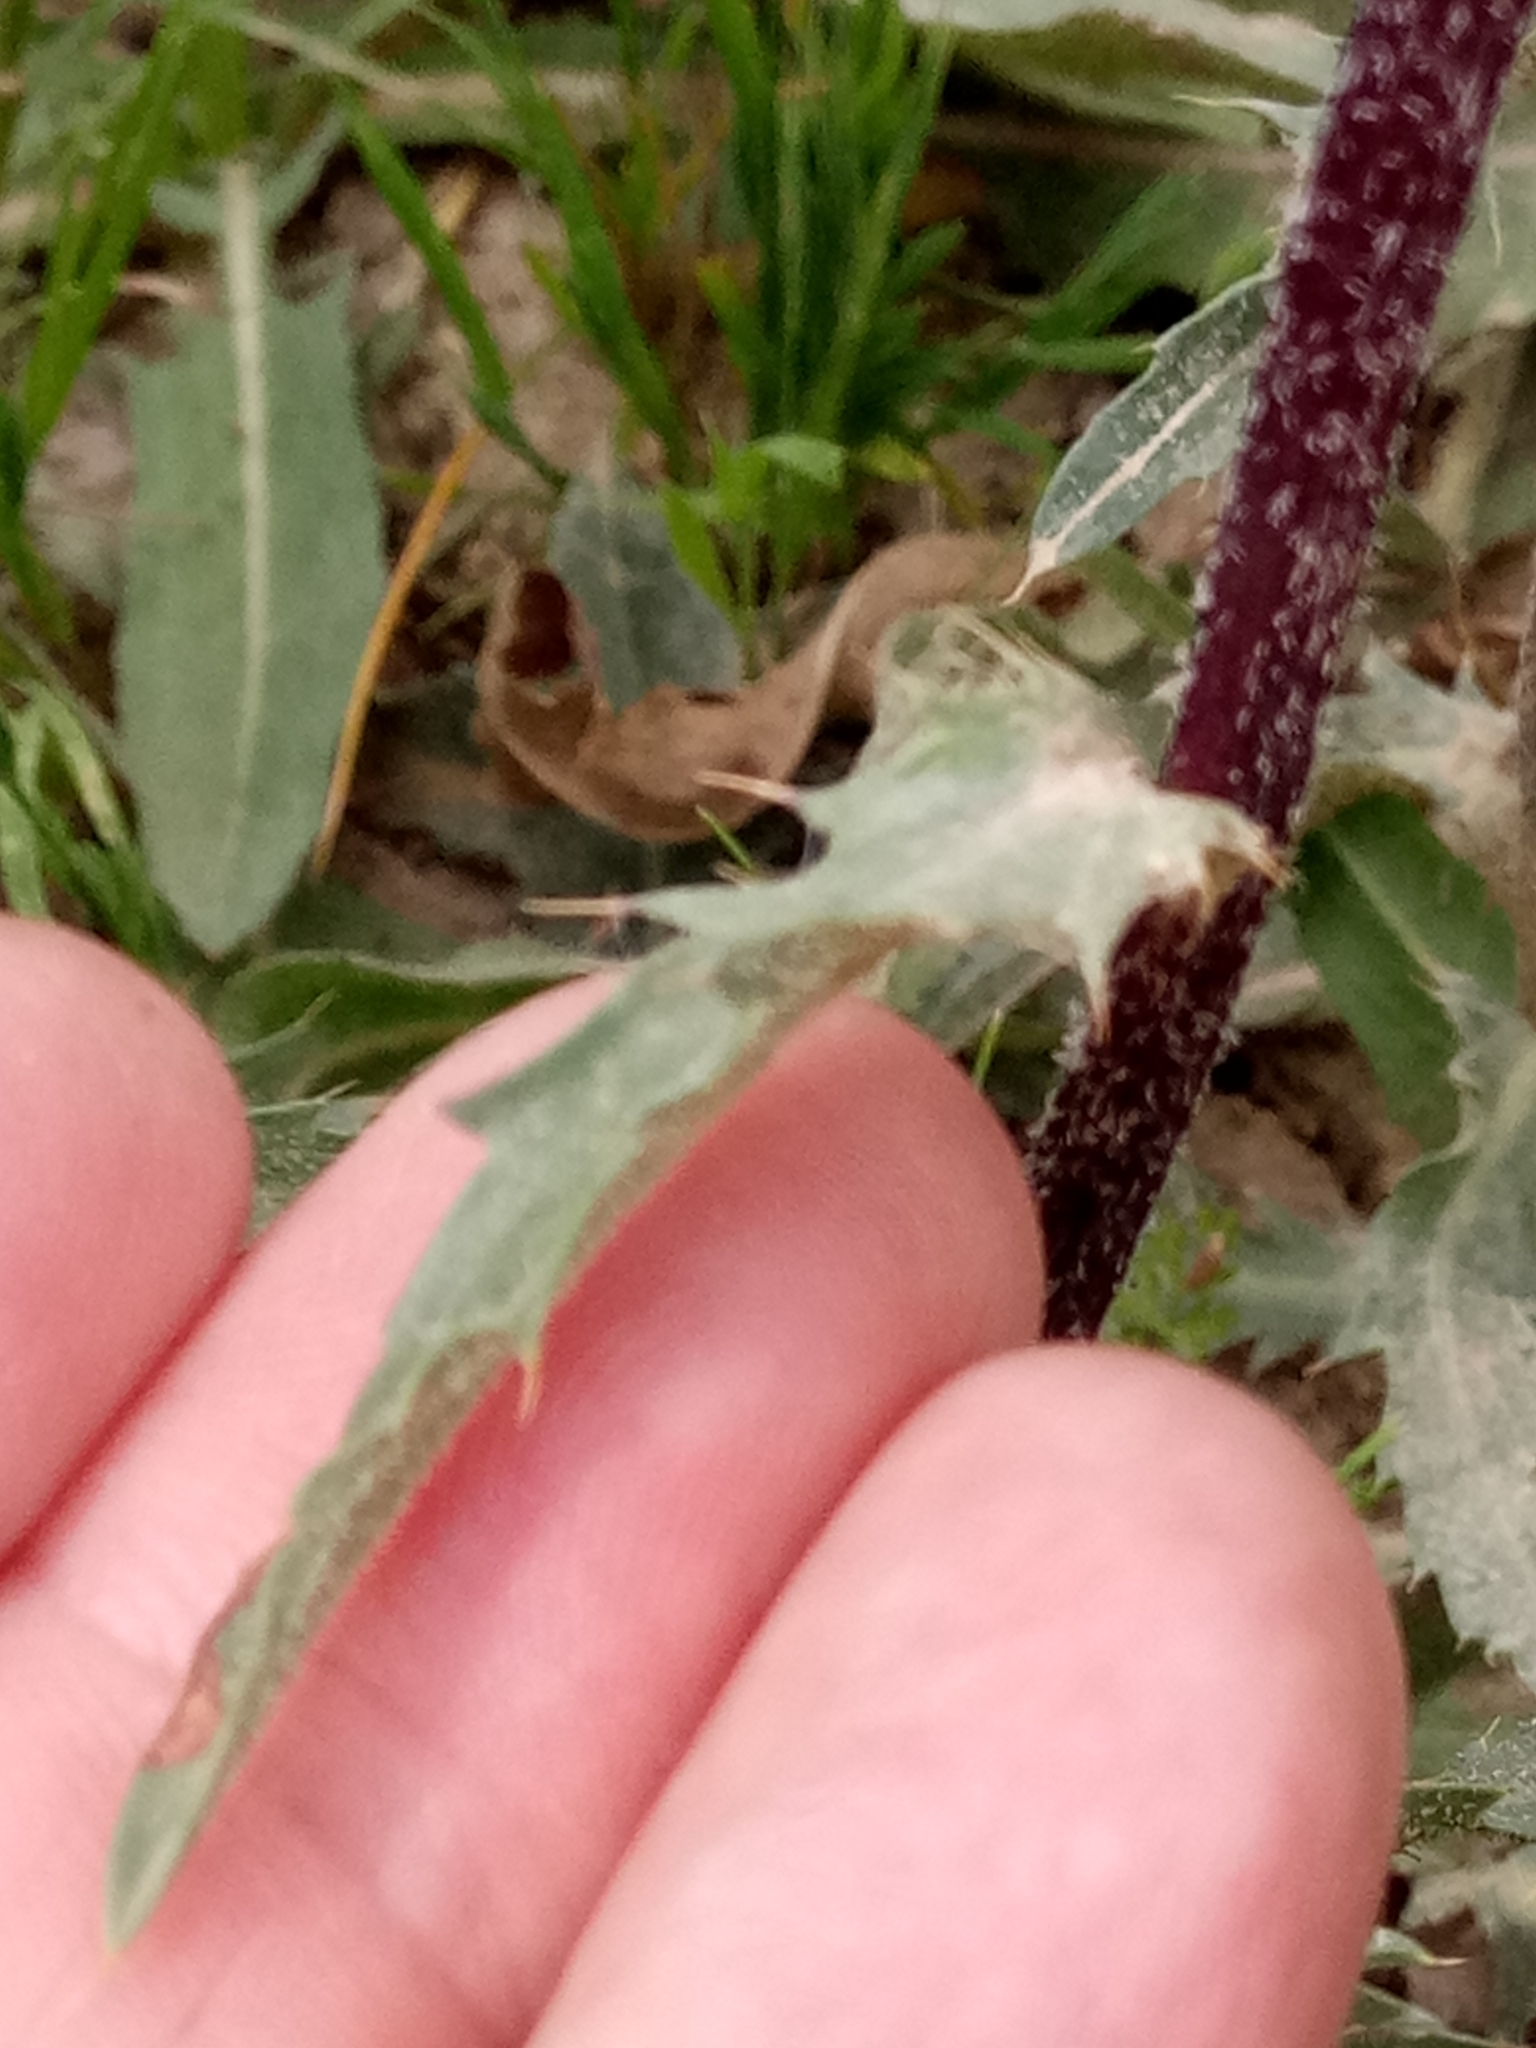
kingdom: Plantae
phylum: Tracheophyta
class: Magnoliopsida
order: Asterales
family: Asteraceae
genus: Carduncellus
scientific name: Carduncellus caeruleus
